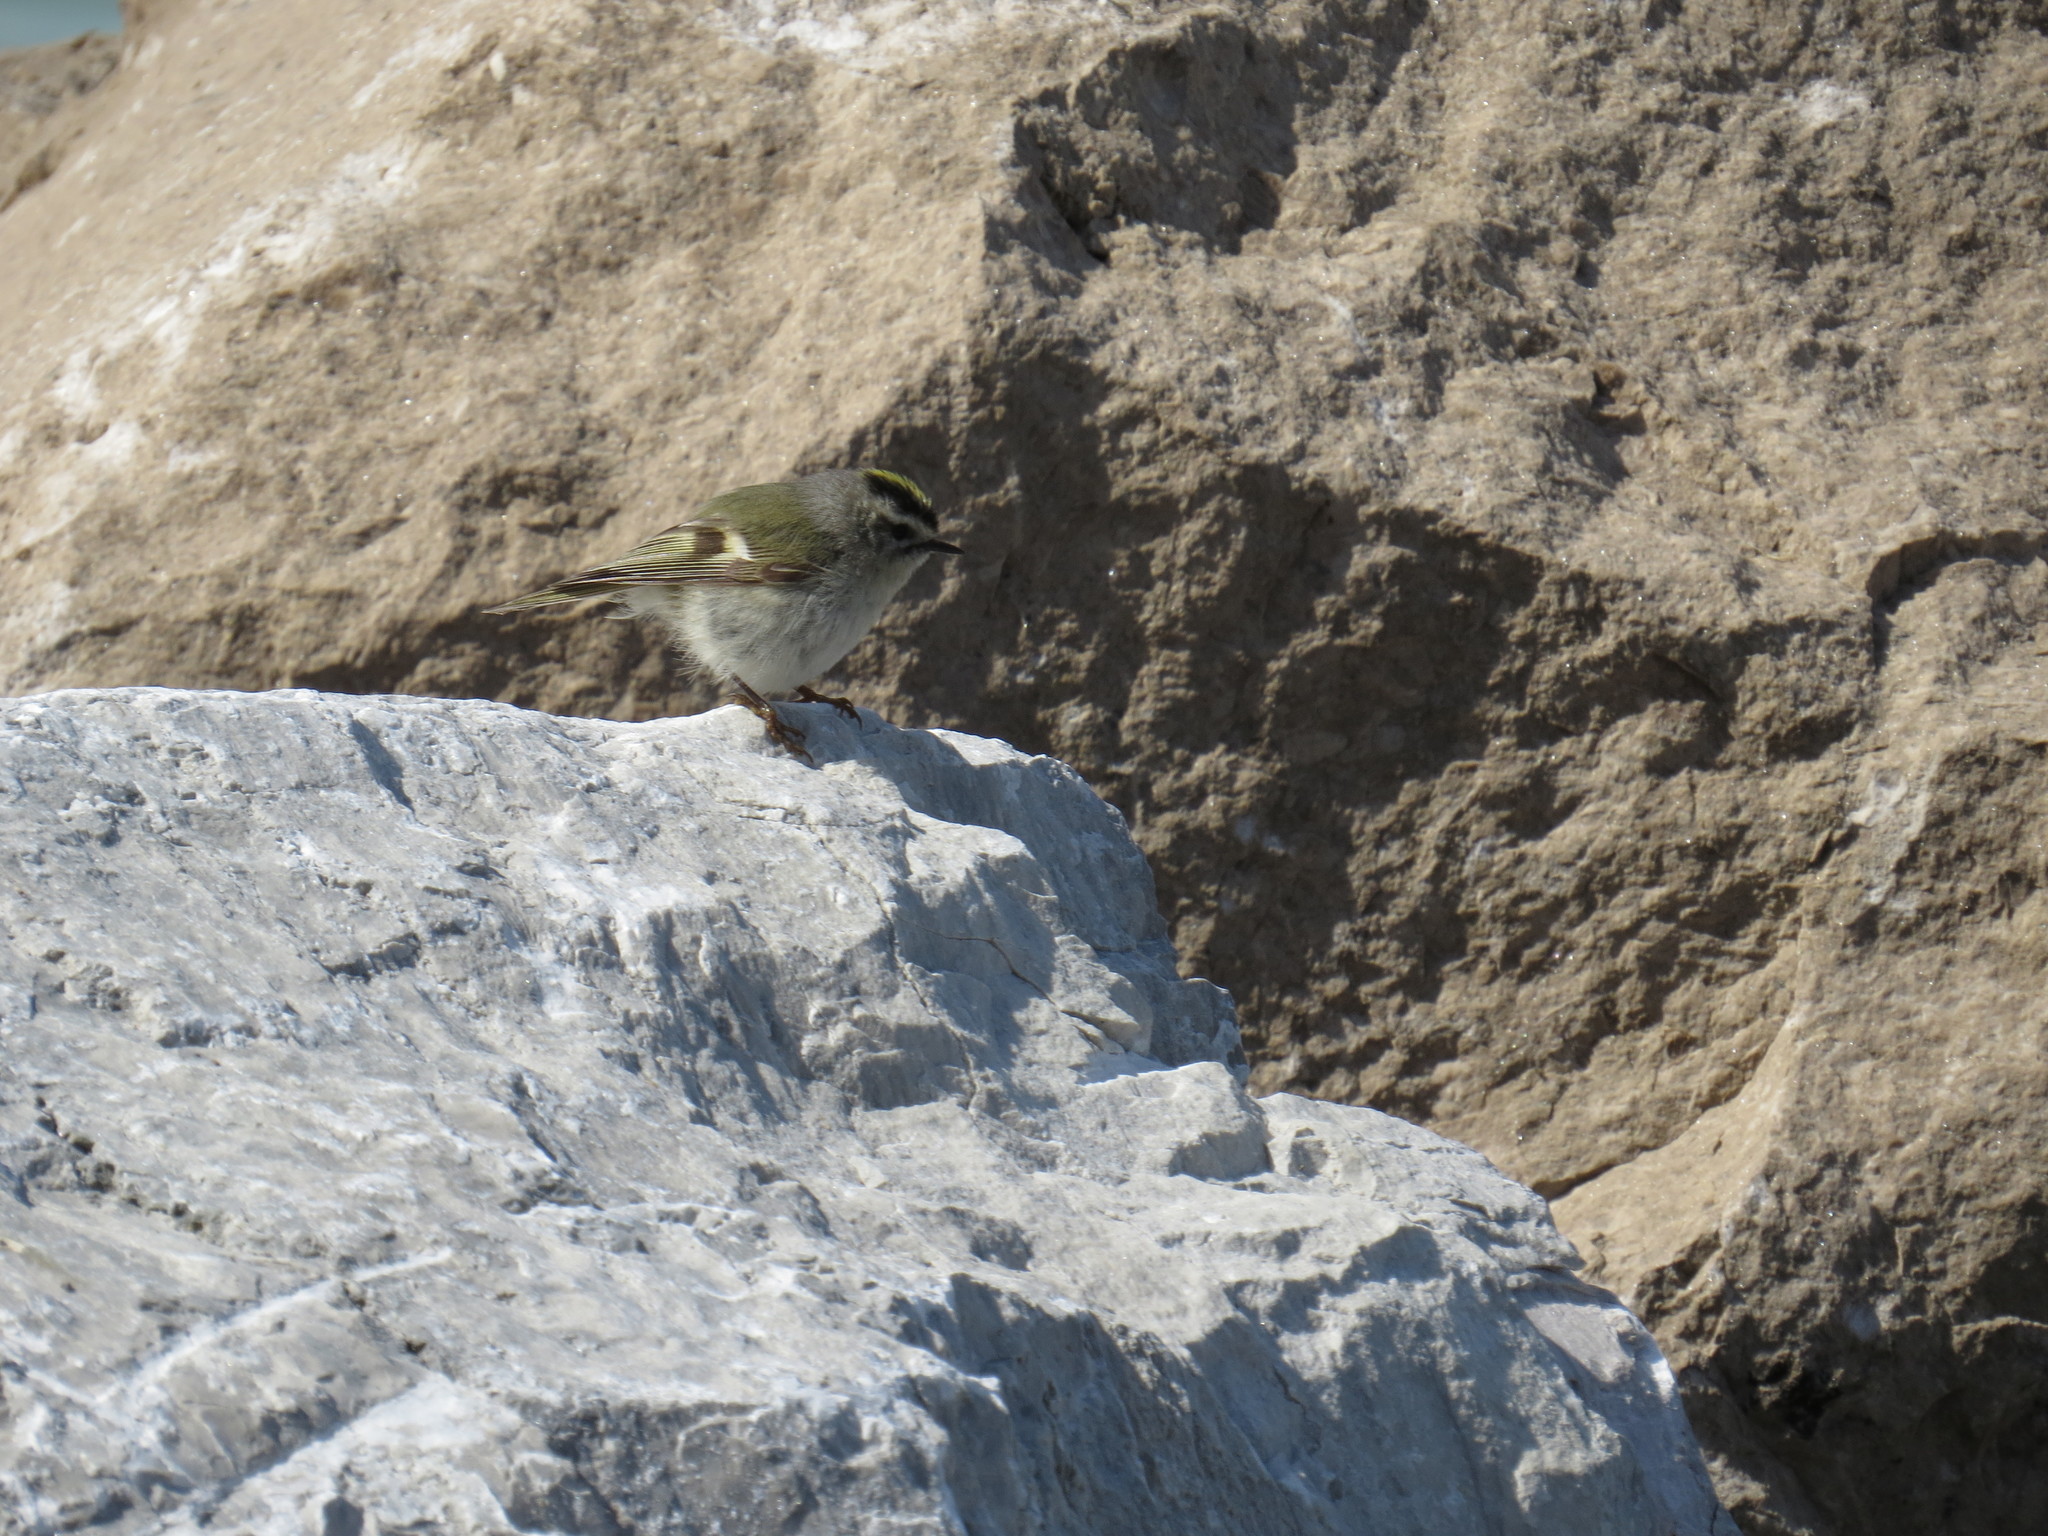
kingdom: Animalia
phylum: Chordata
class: Aves
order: Passeriformes
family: Regulidae
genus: Regulus
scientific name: Regulus satrapa
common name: Golden-crowned kinglet
